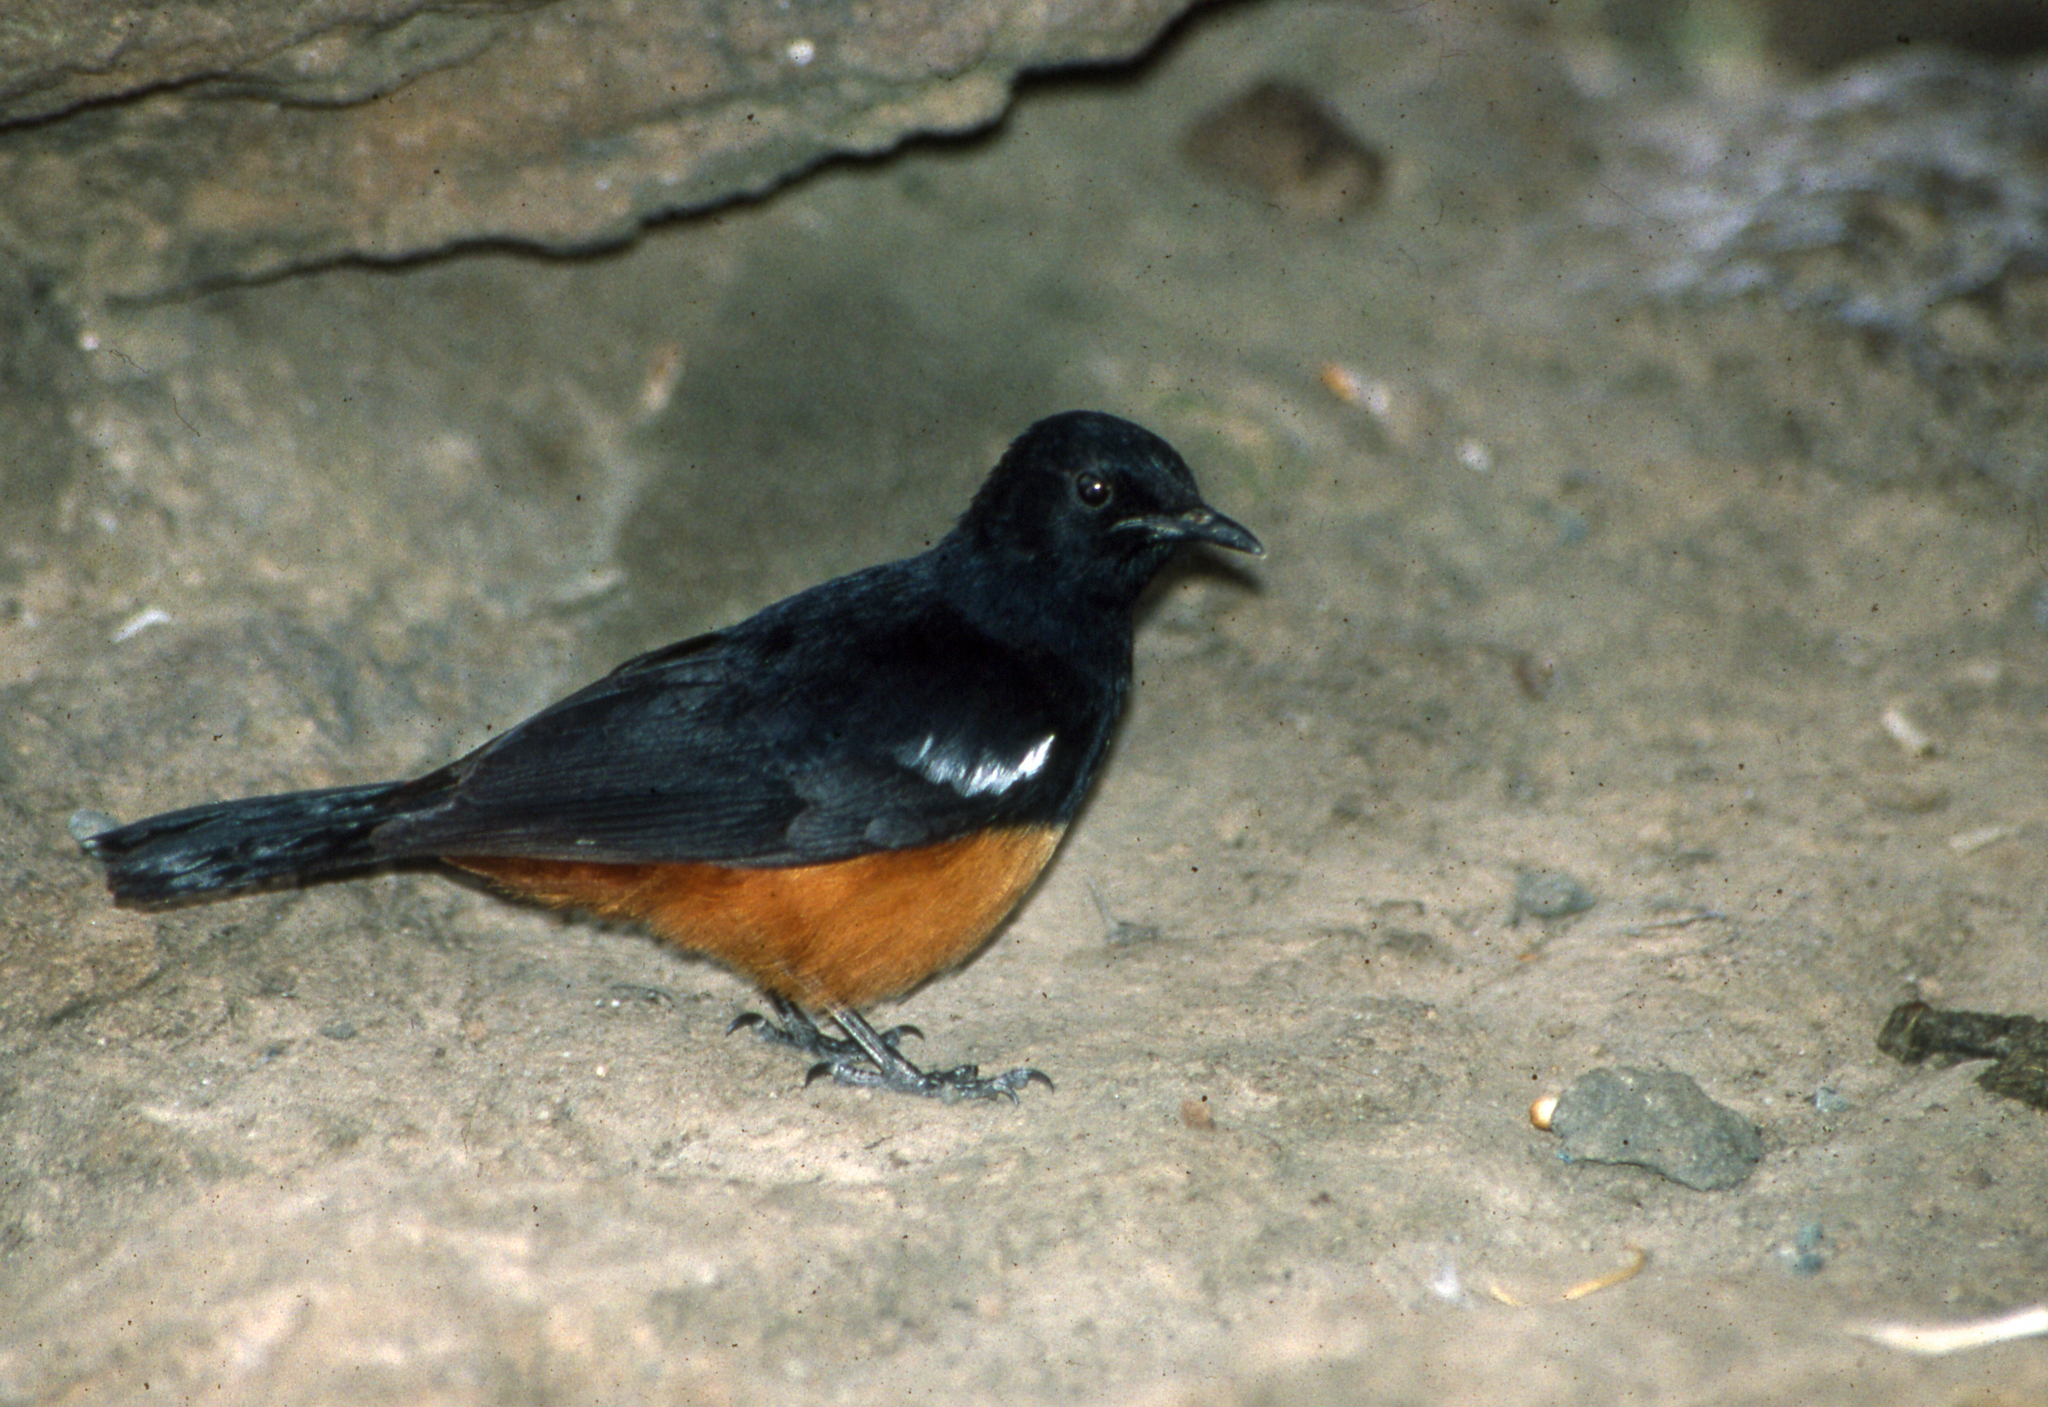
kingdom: Animalia
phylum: Chordata
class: Aves
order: Passeriformes
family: Muscicapidae
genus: Thamnolaea
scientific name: Thamnolaea cinnamomeiventris
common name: Mocking cliff chat
